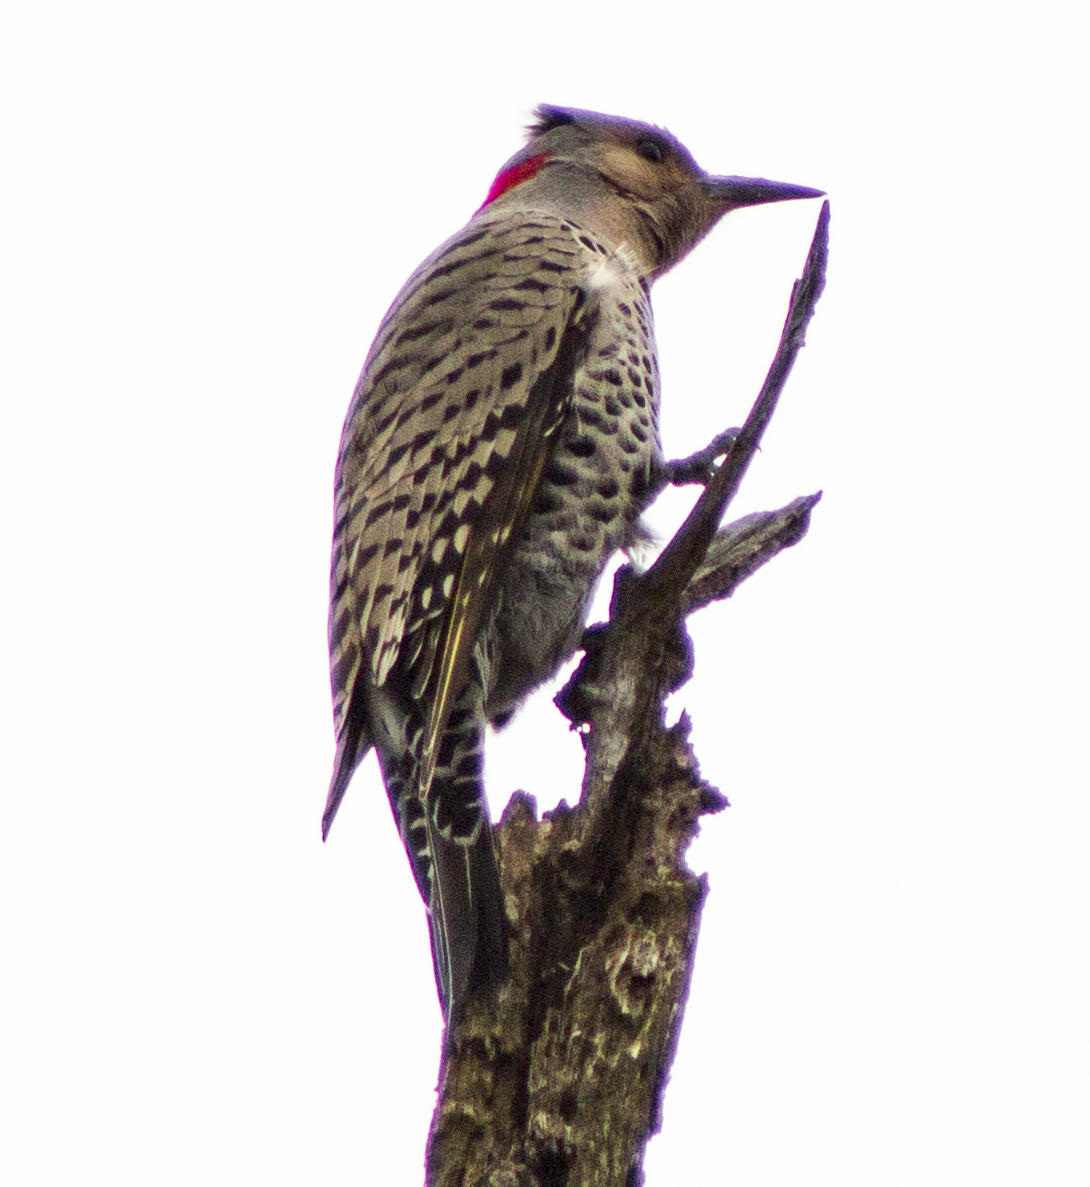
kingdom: Animalia
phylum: Chordata
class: Aves
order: Piciformes
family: Picidae
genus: Colaptes
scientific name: Colaptes auratus
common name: Northern flicker
